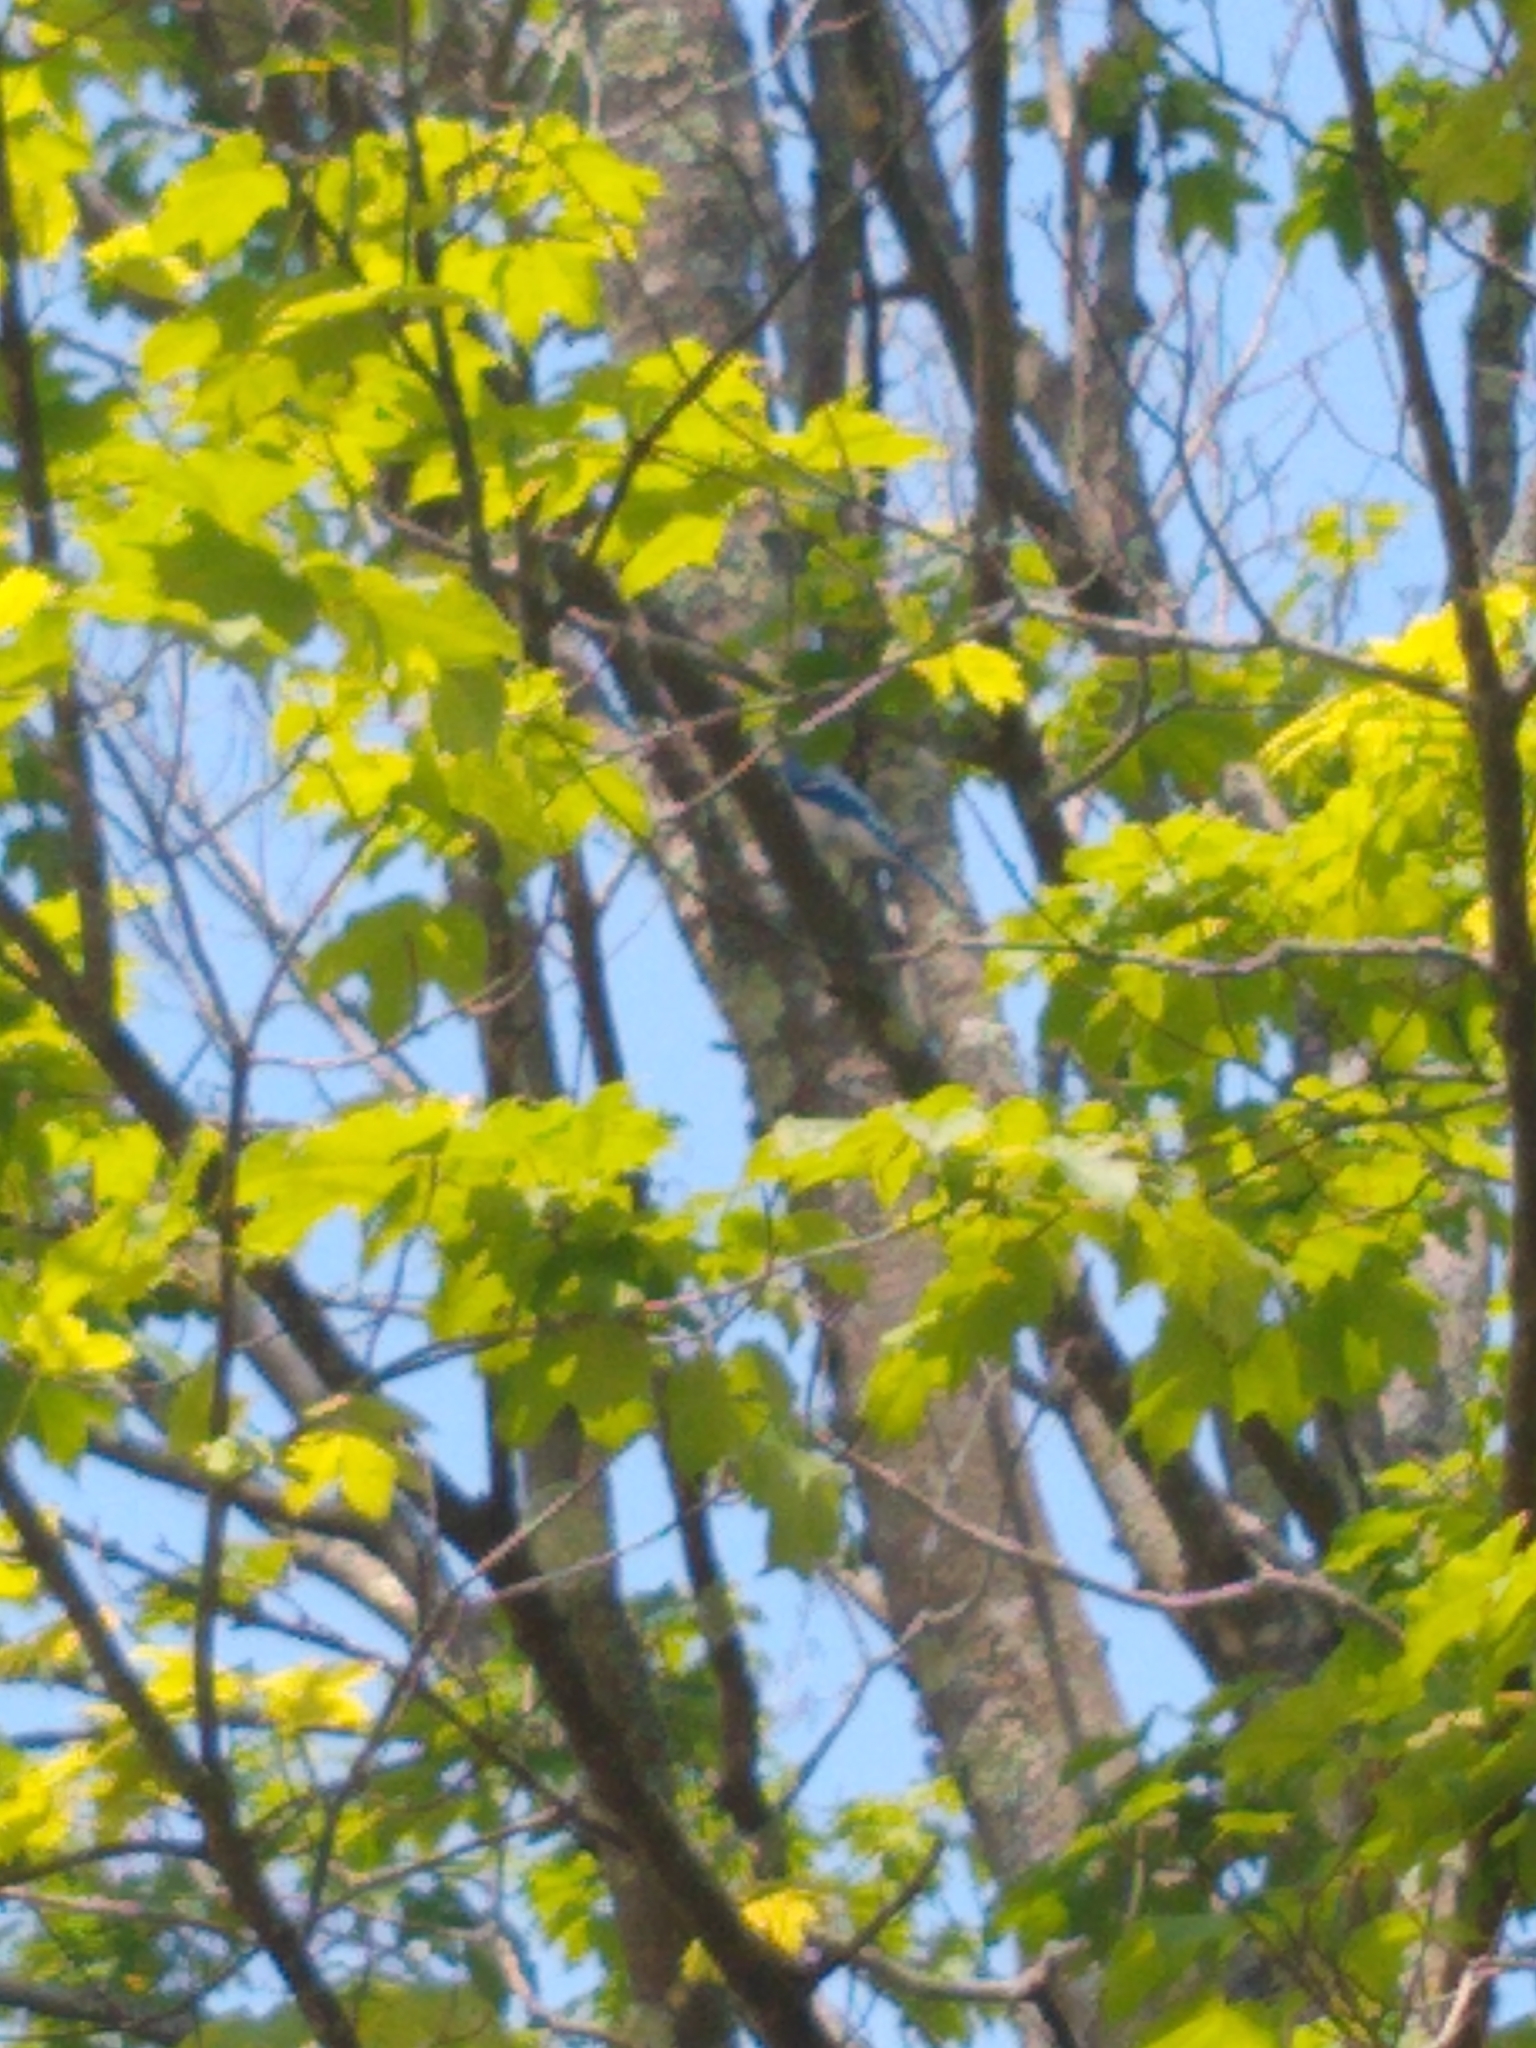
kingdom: Animalia
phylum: Chordata
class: Aves
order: Passeriformes
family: Corvidae
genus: Cyanocitta
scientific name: Cyanocitta cristata
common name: Blue jay
